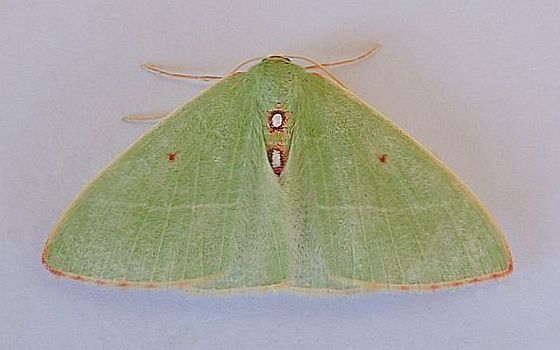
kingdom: Animalia
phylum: Arthropoda
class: Insecta
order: Lepidoptera
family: Geometridae
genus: Nemoria
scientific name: Nemoria darwiniata
